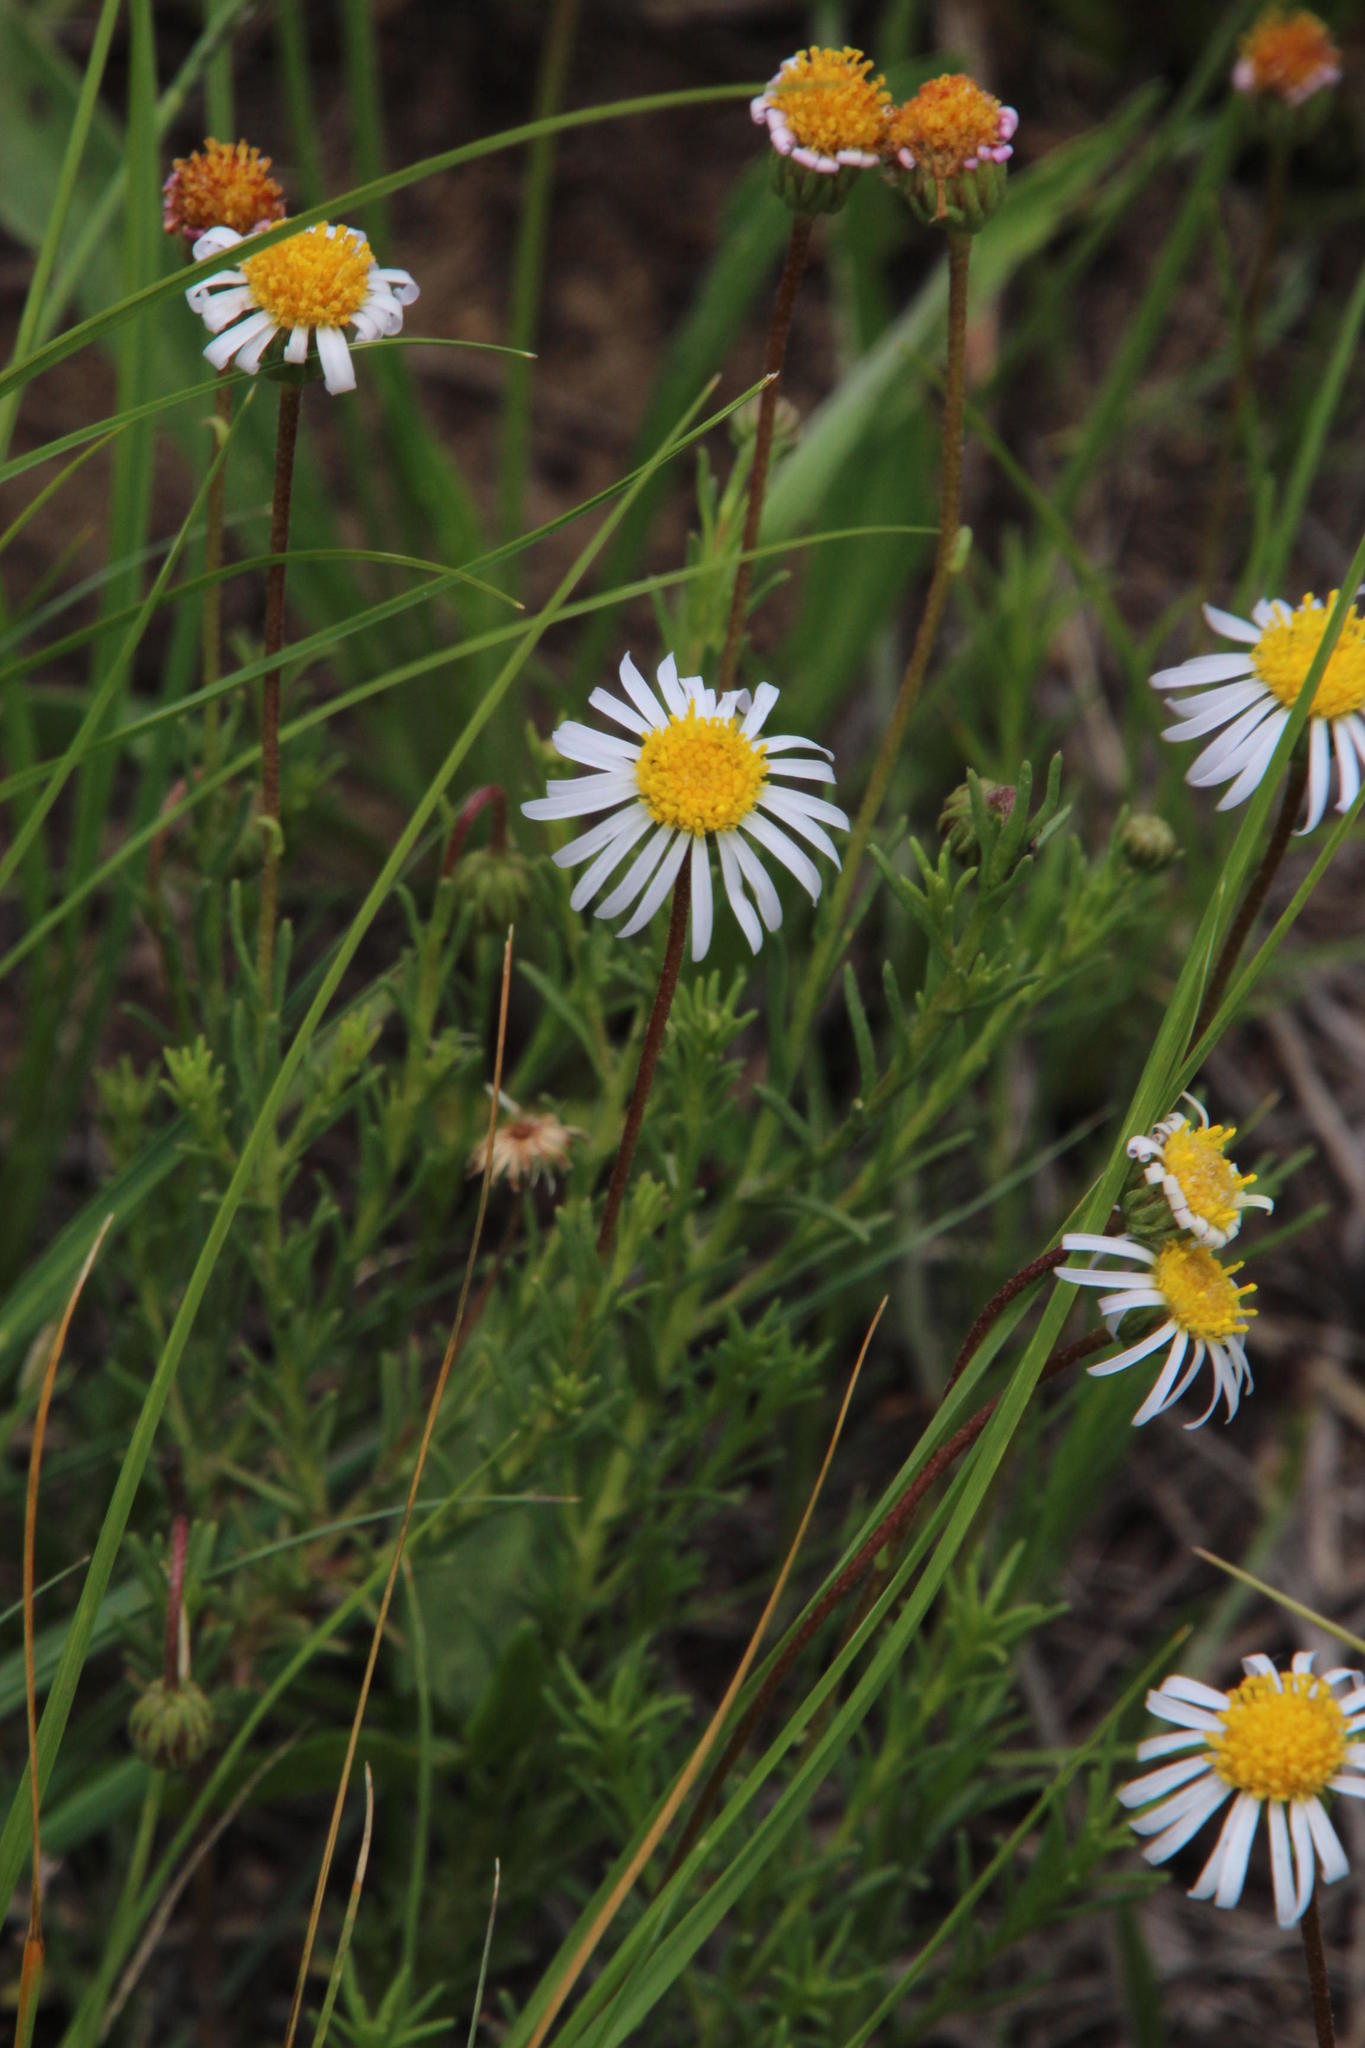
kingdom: Plantae
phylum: Tracheophyta
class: Magnoliopsida
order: Asterales
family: Asteraceae
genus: Felicia
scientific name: Felicia muricata
